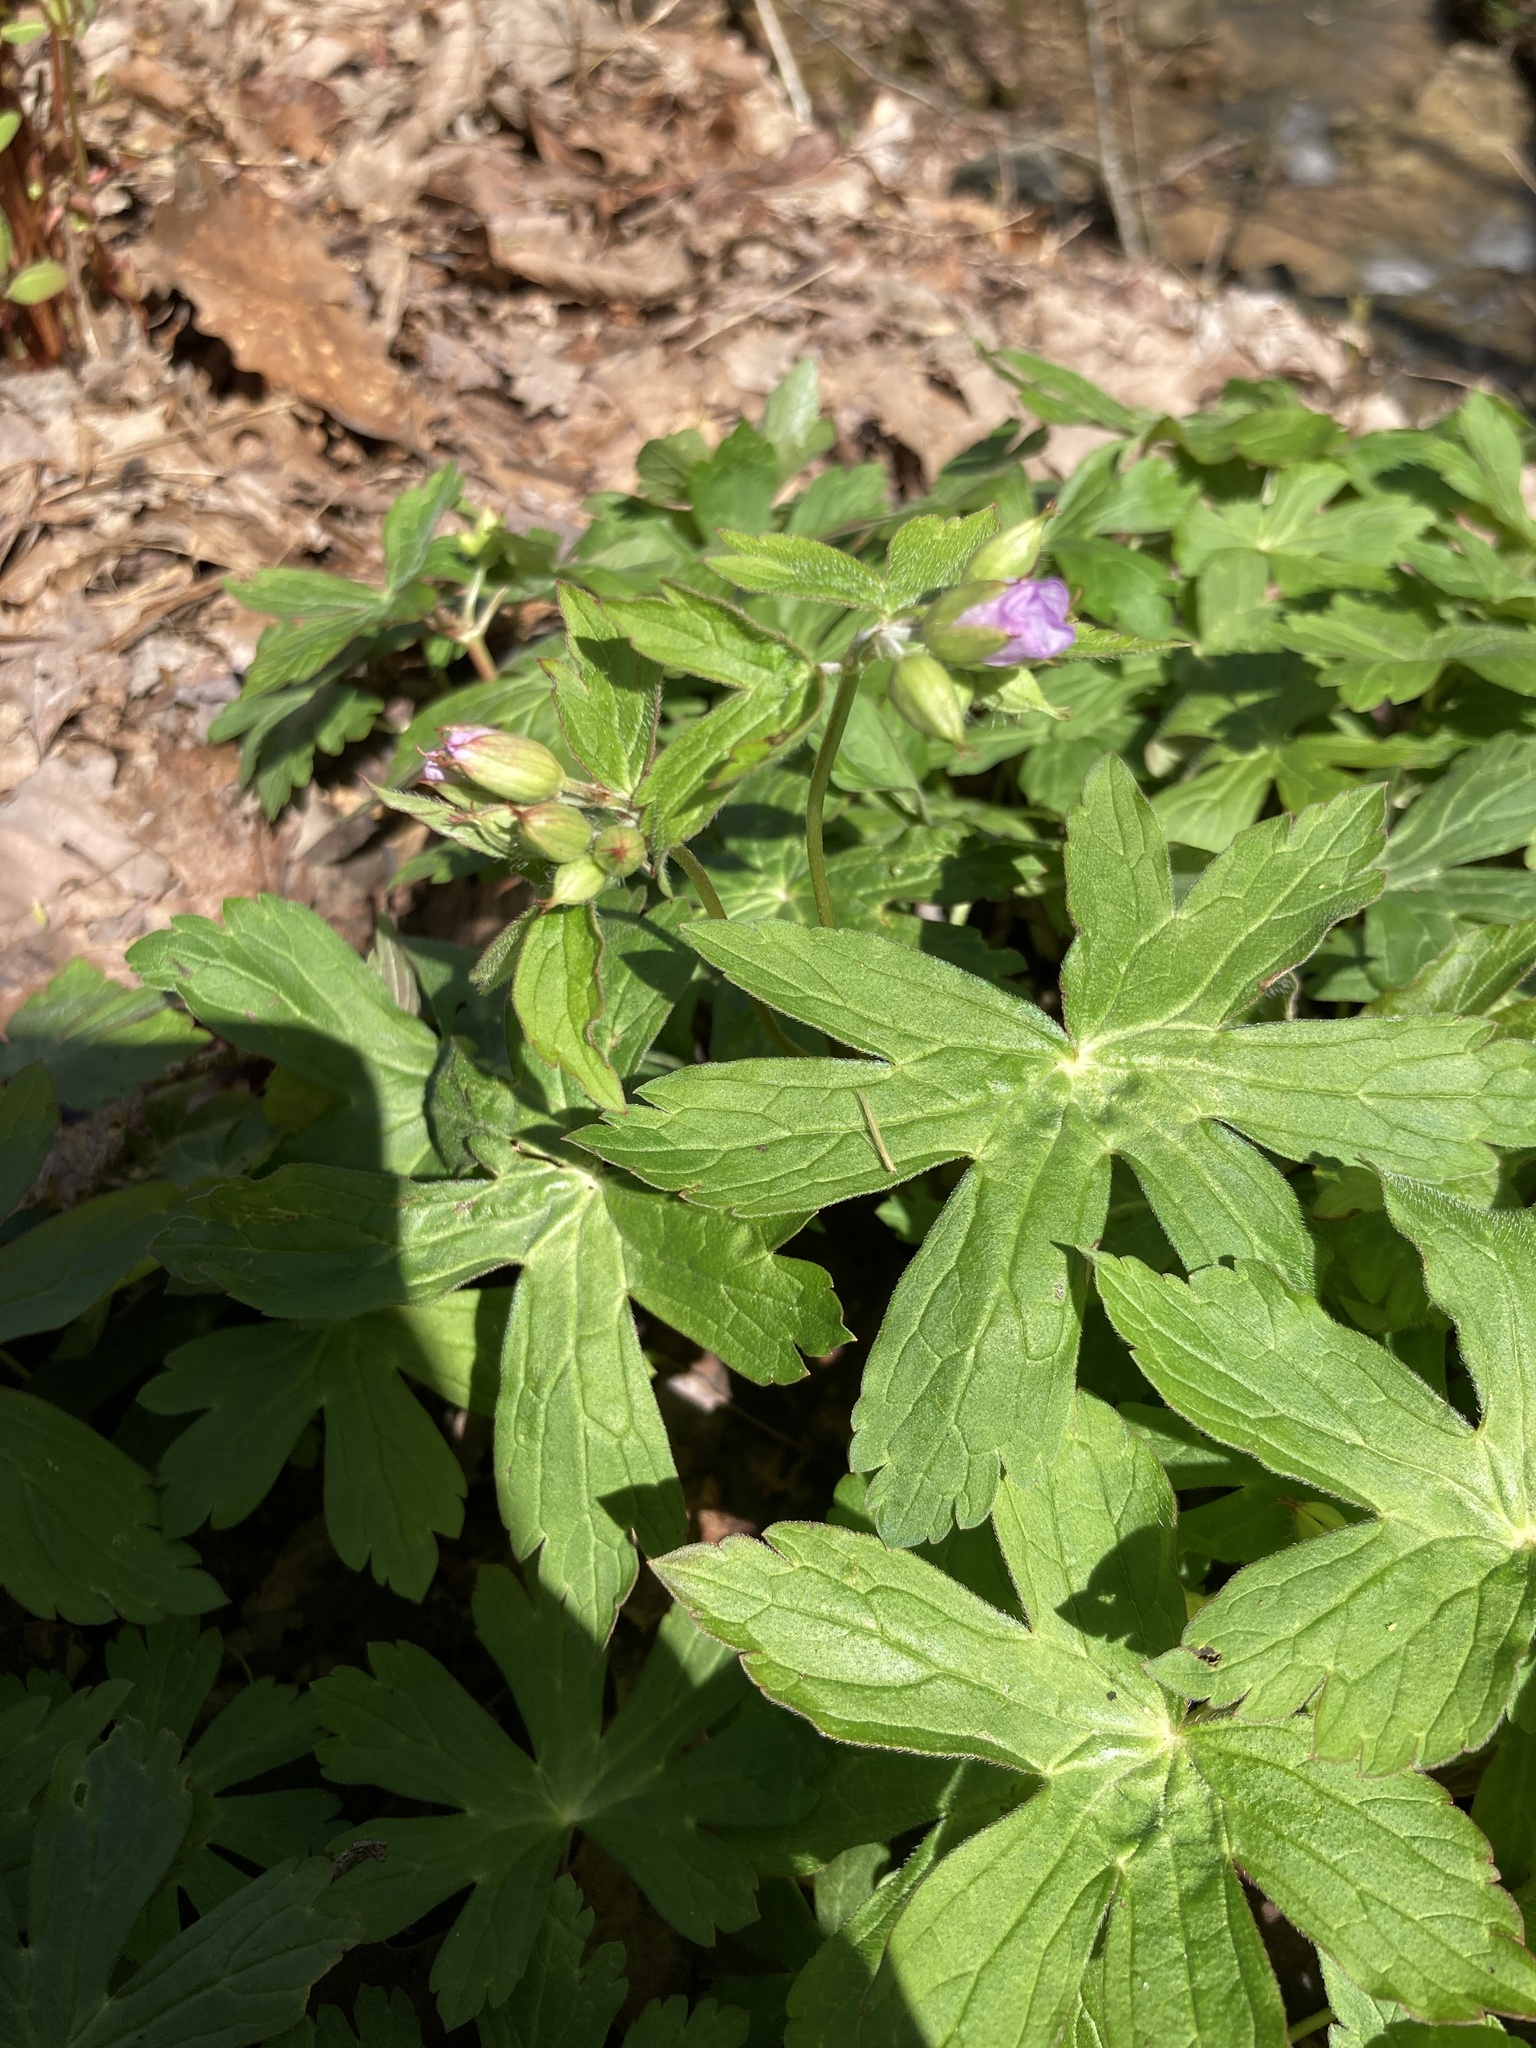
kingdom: Plantae
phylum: Tracheophyta
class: Magnoliopsida
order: Geraniales
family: Geraniaceae
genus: Geranium
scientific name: Geranium maculatum
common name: Spotted geranium
